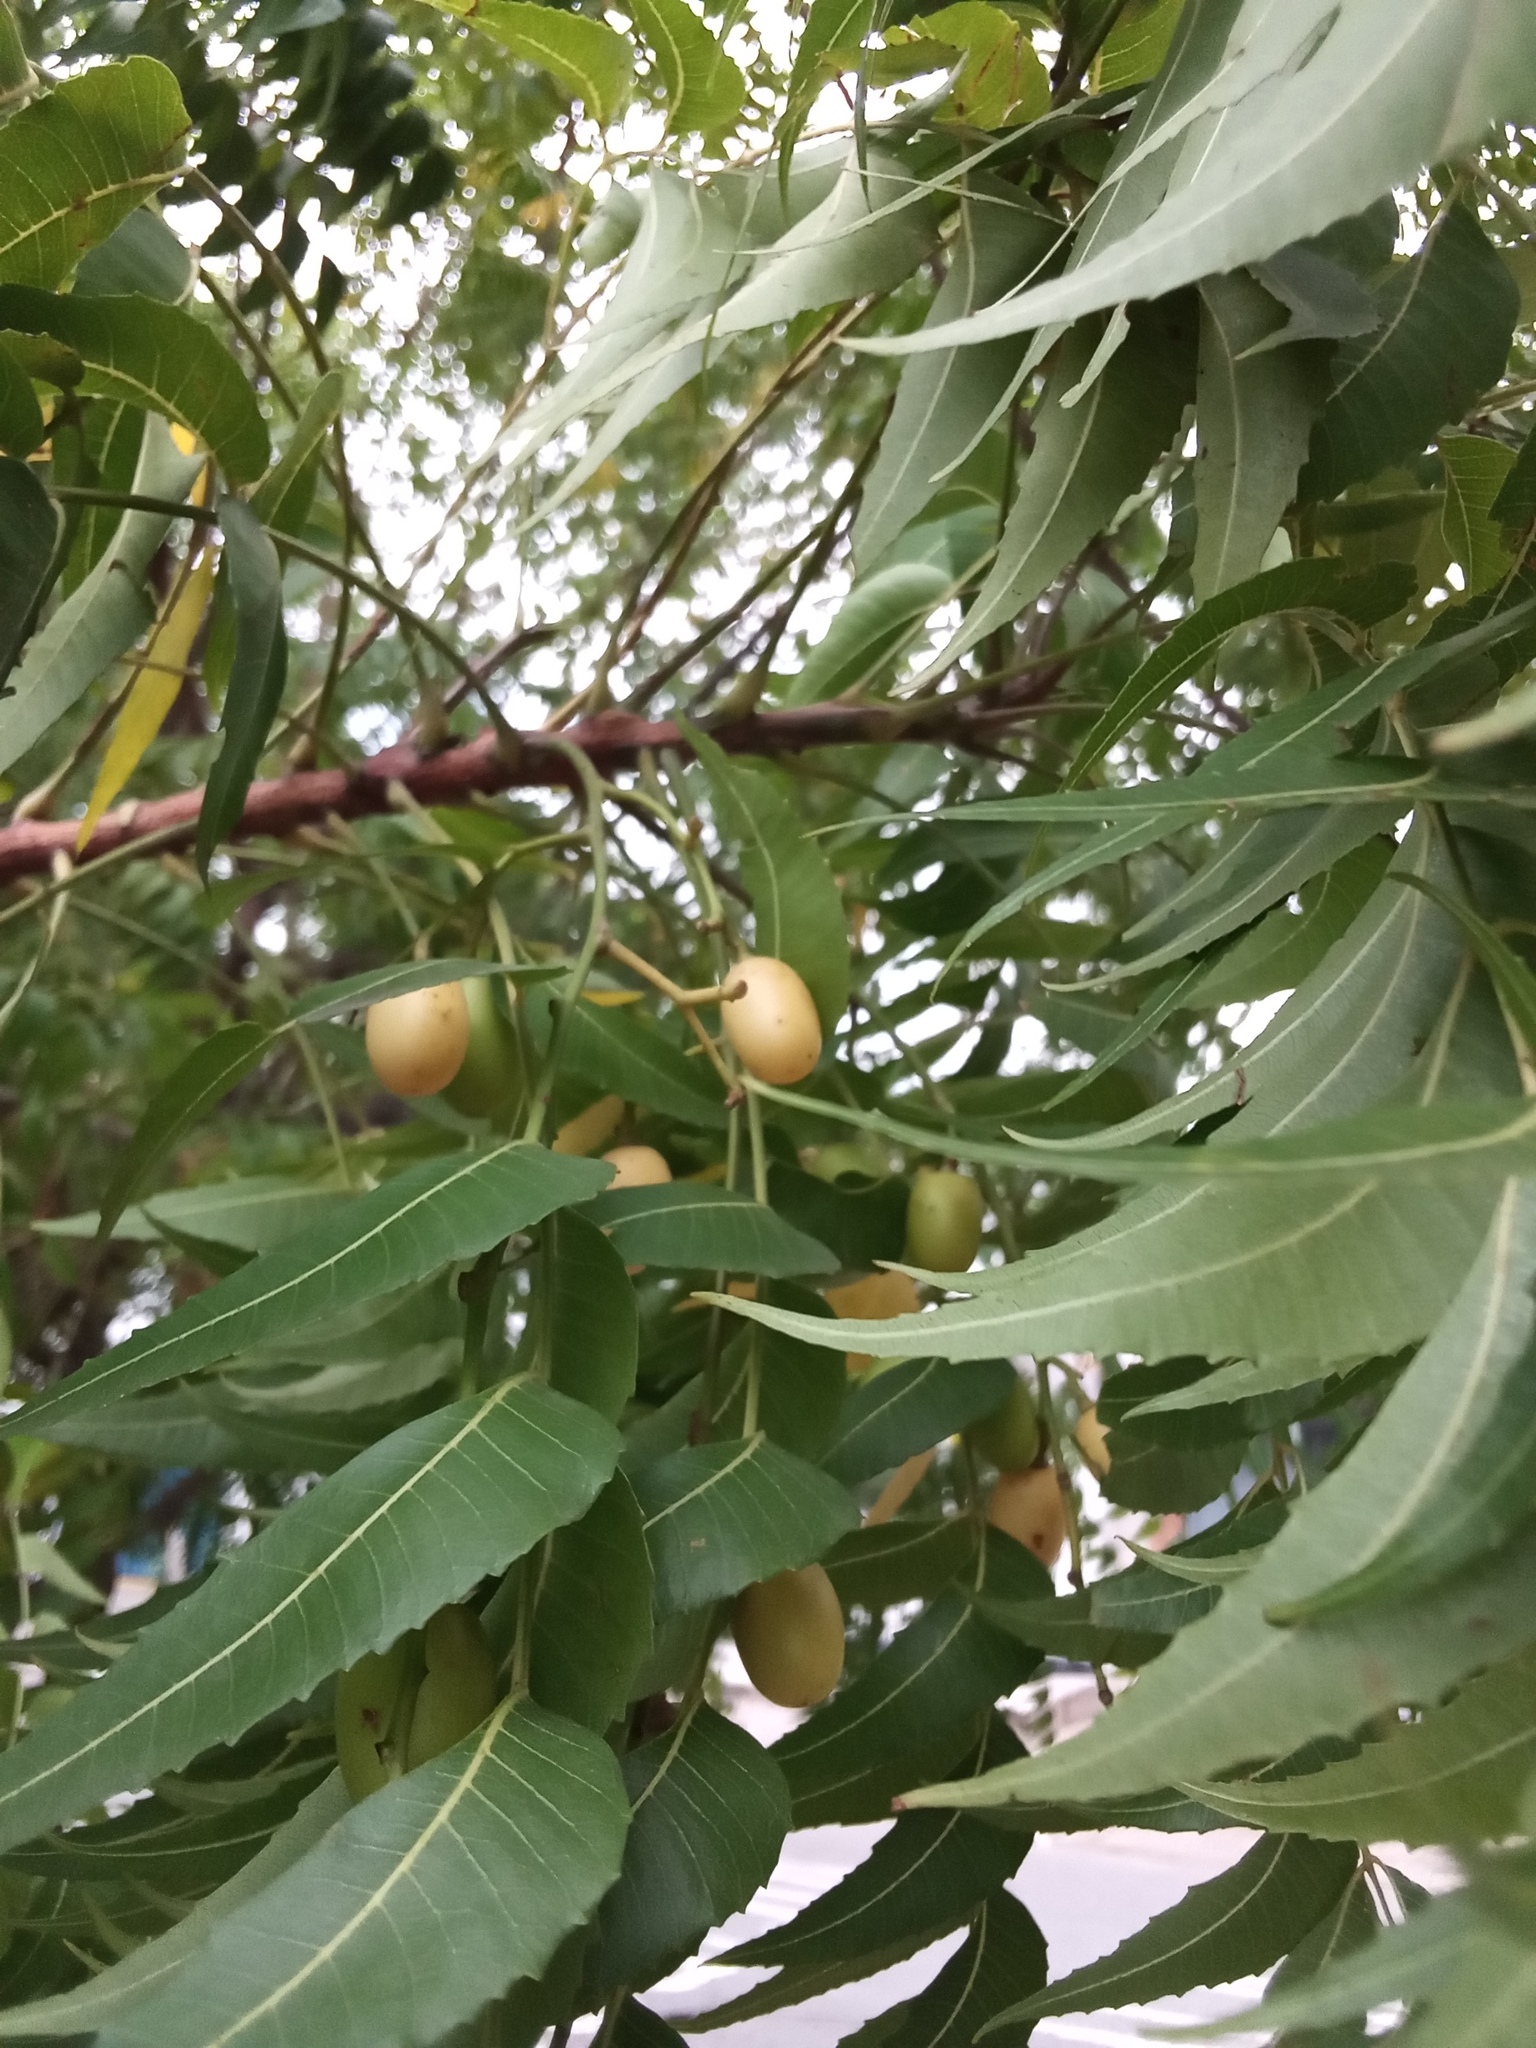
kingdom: Plantae
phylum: Tracheophyta
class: Magnoliopsida
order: Sapindales
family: Meliaceae
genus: Azadirachta
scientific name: Azadirachta indica
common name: Neem
